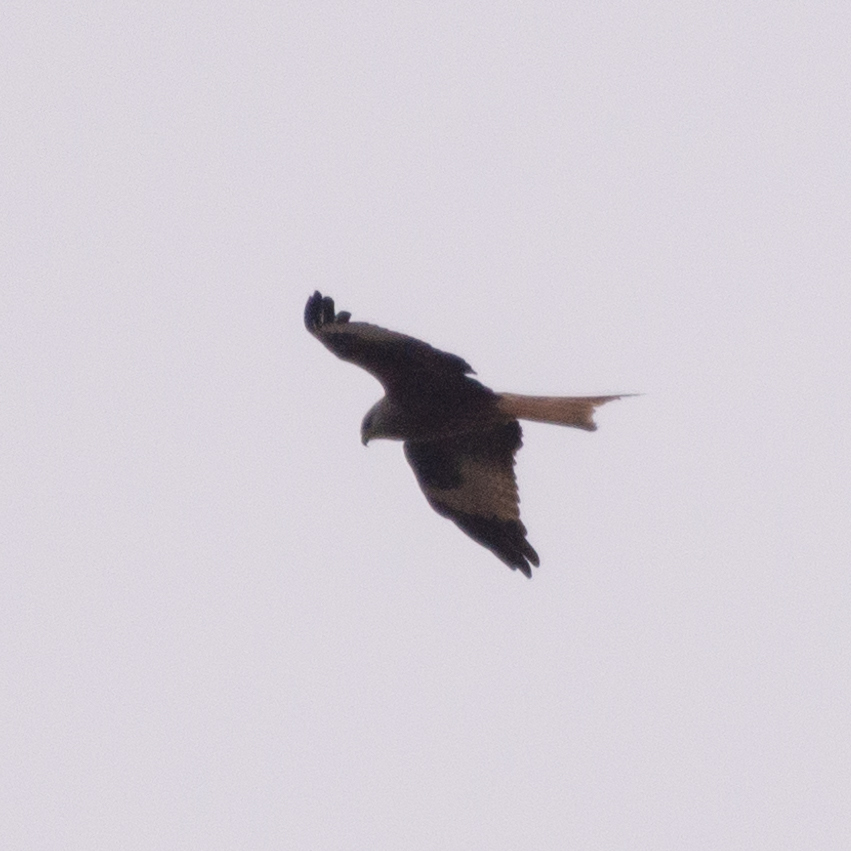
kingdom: Animalia
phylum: Chordata
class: Aves
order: Accipitriformes
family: Accipitridae
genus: Milvus
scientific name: Milvus milvus
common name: Red kite
